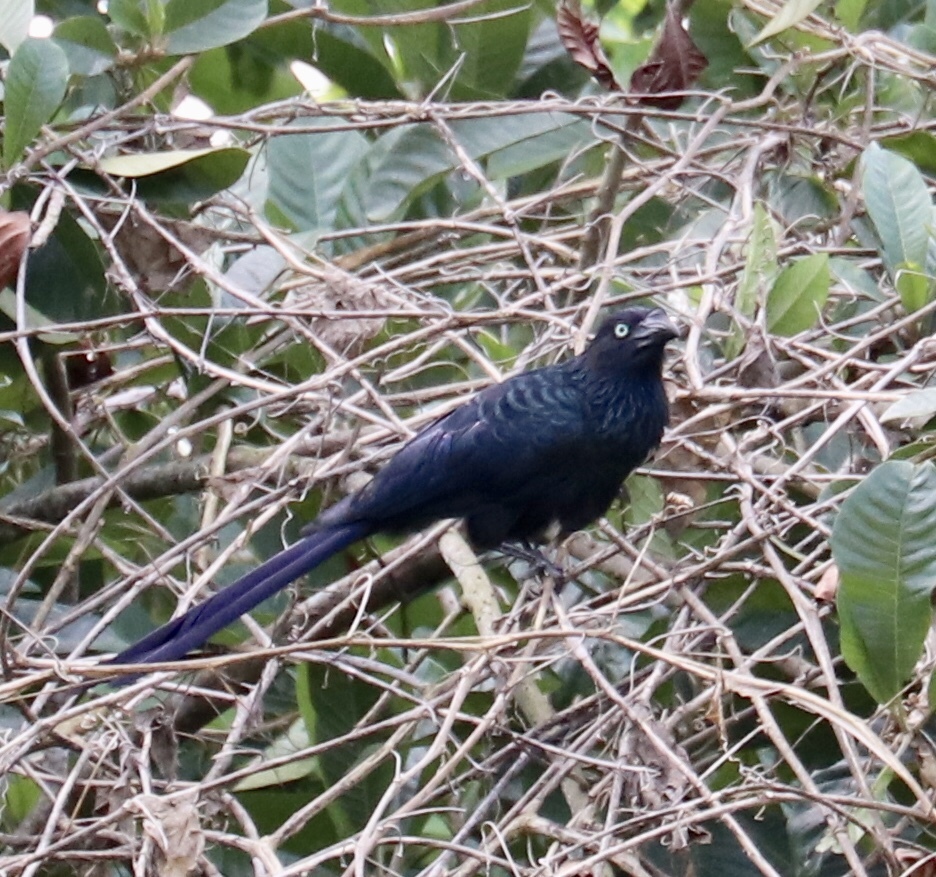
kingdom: Animalia
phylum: Chordata
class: Aves
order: Cuculiformes
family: Cuculidae
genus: Crotophaga
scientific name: Crotophaga major
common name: Greater ani
